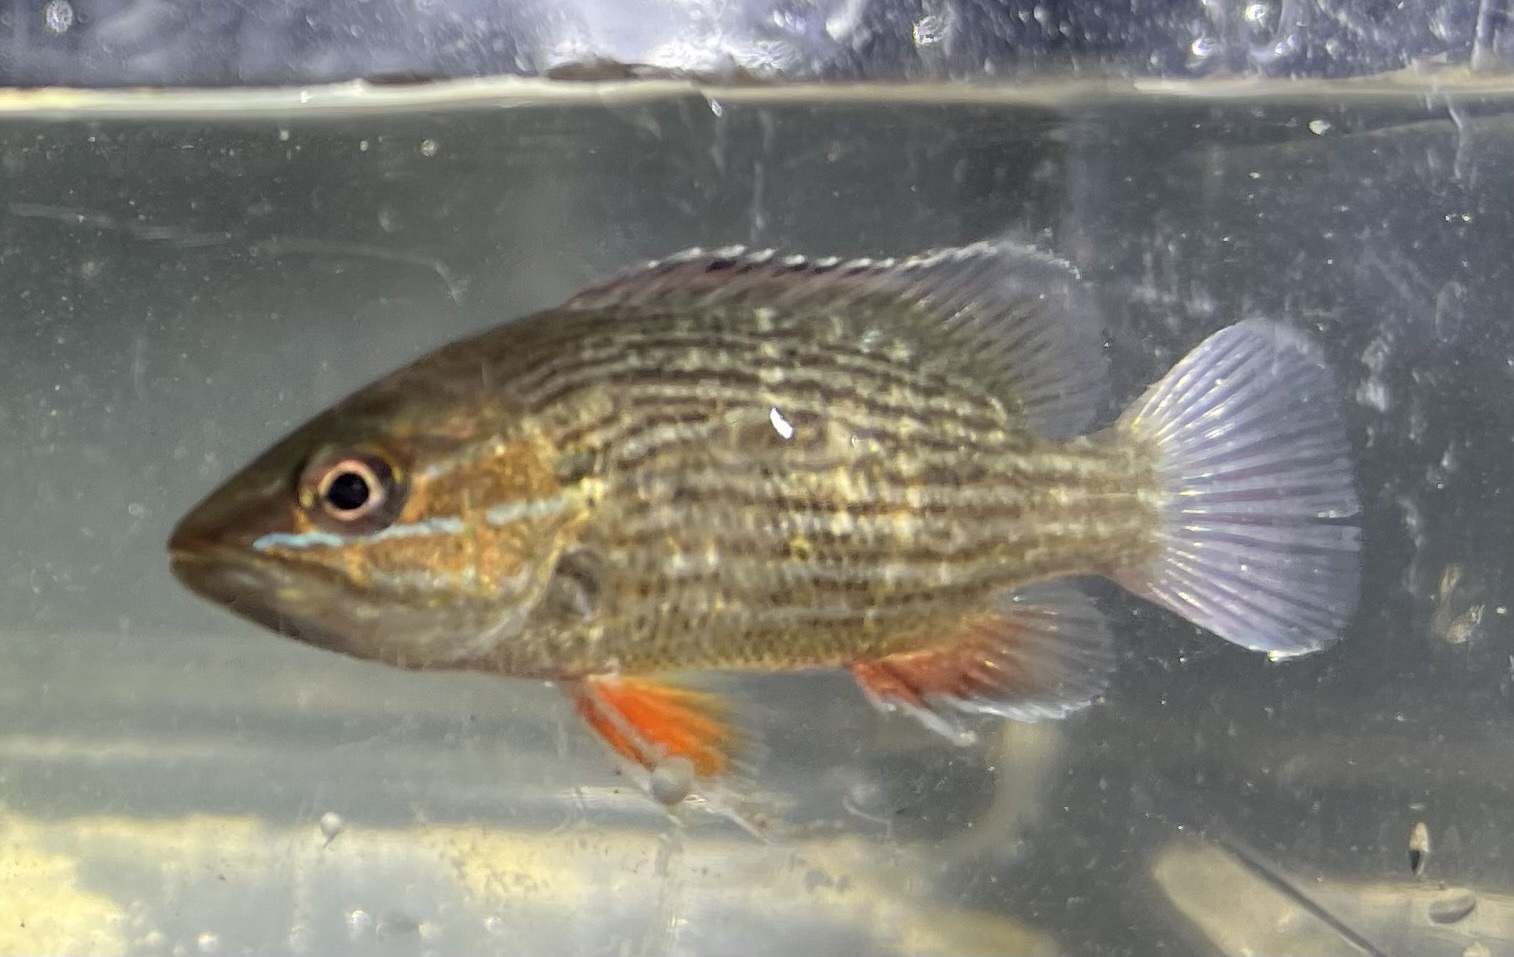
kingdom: Animalia
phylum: Chordata
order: Perciformes
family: Lutjanidae
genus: Lutjanus
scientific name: Lutjanus griseus
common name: Gray snapper
